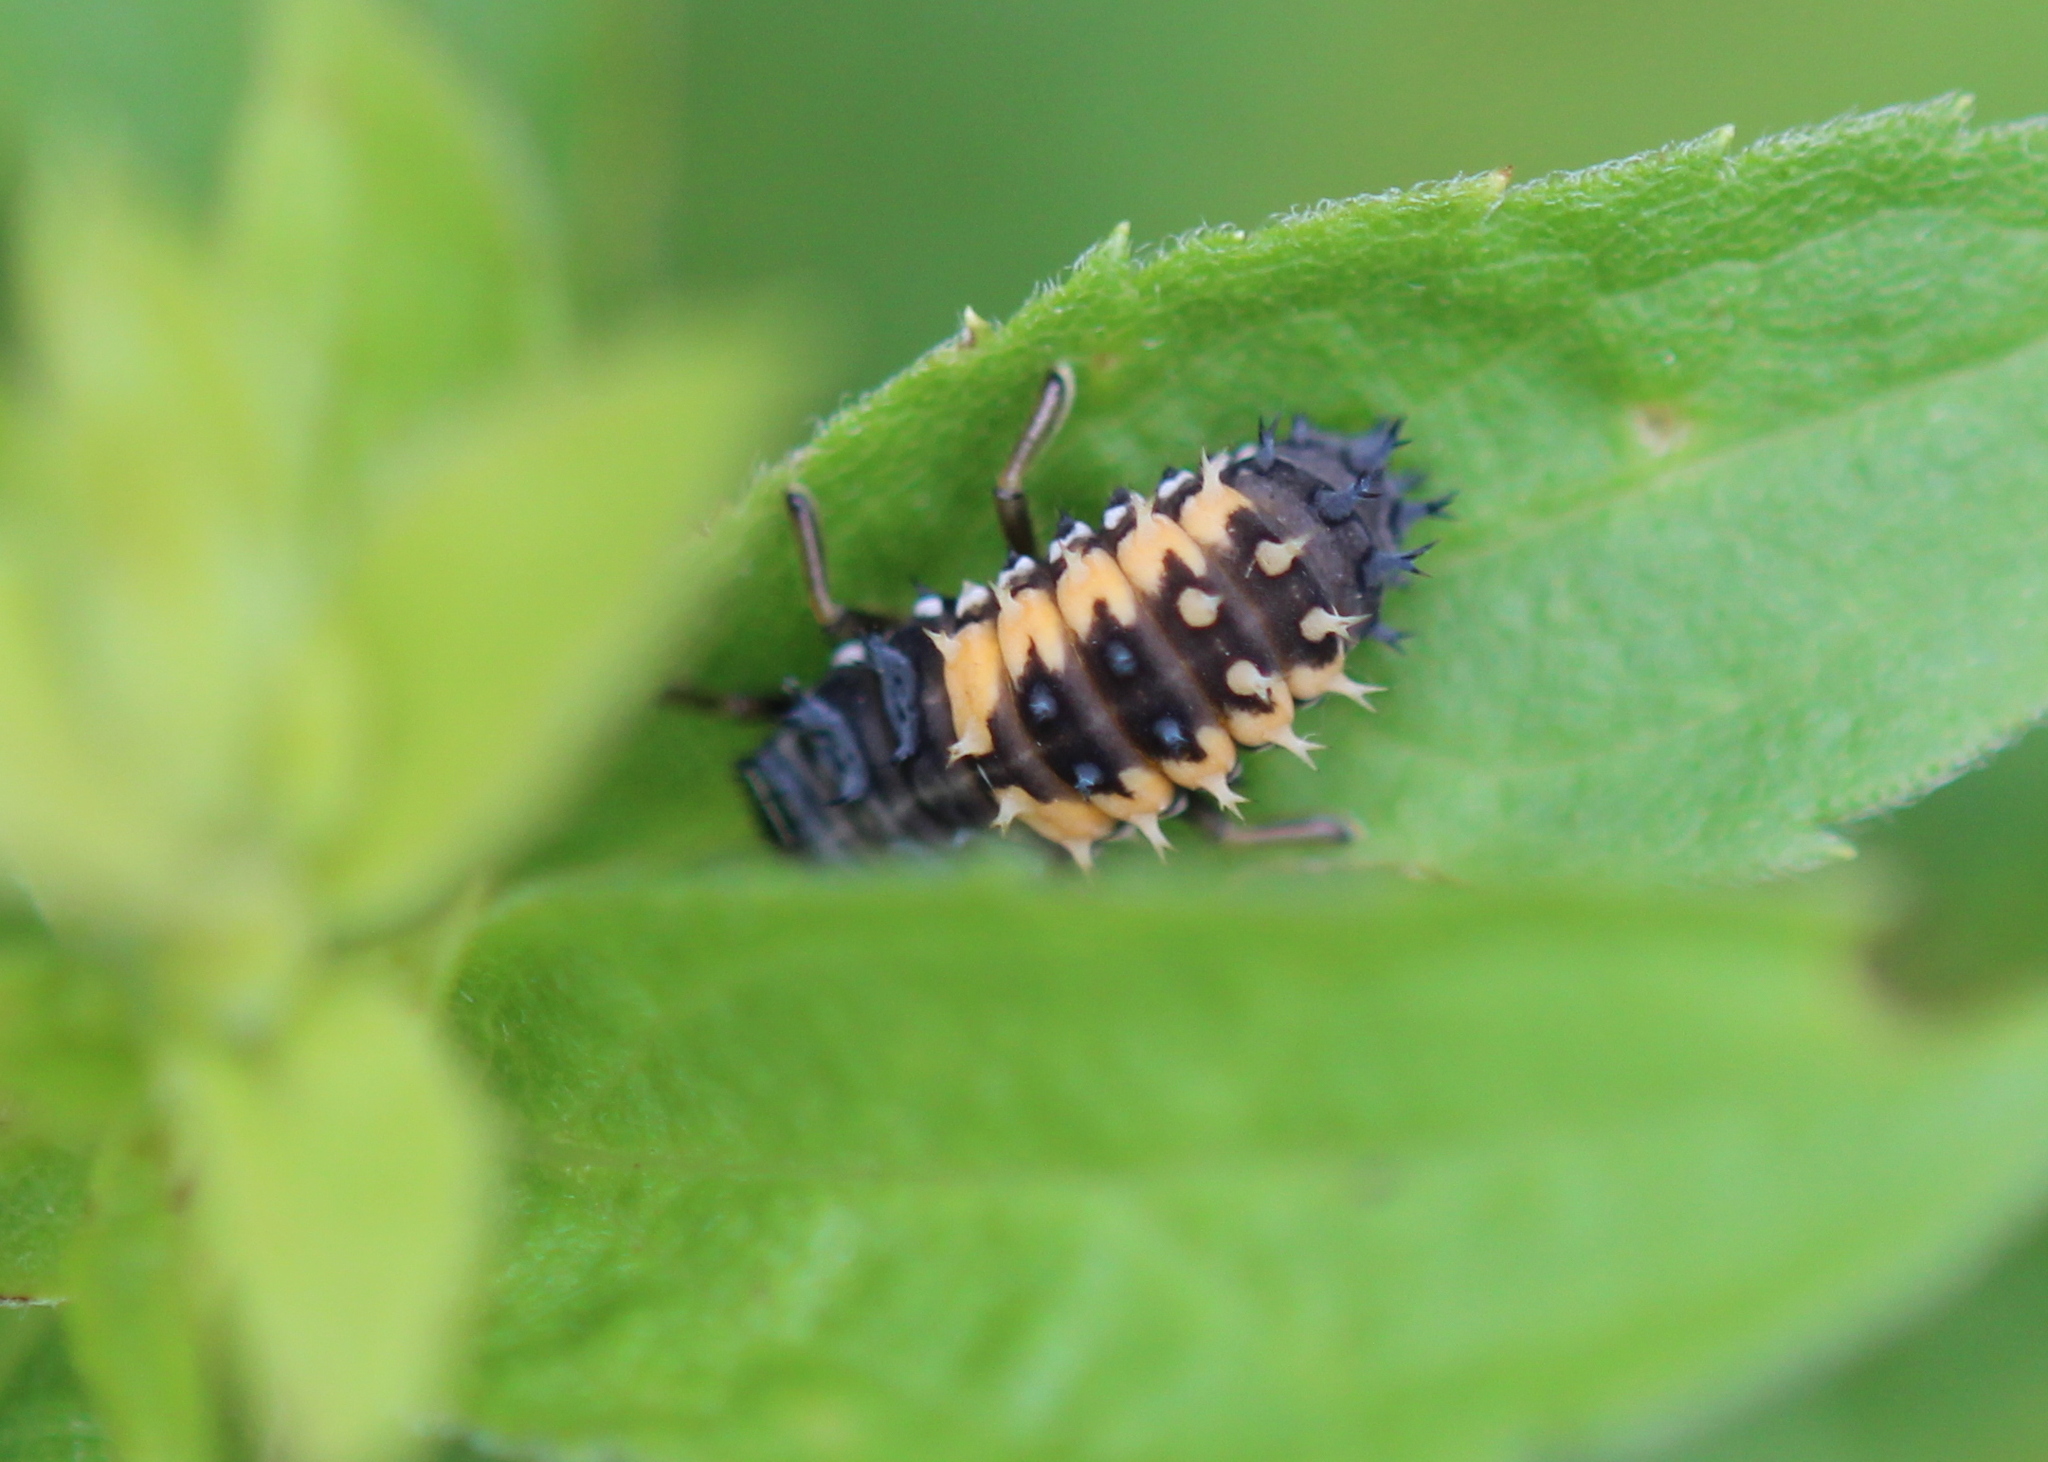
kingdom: Animalia
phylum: Arthropoda
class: Insecta
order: Coleoptera
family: Coccinellidae
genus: Harmonia
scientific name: Harmonia axyridis
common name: Harlequin ladybird
